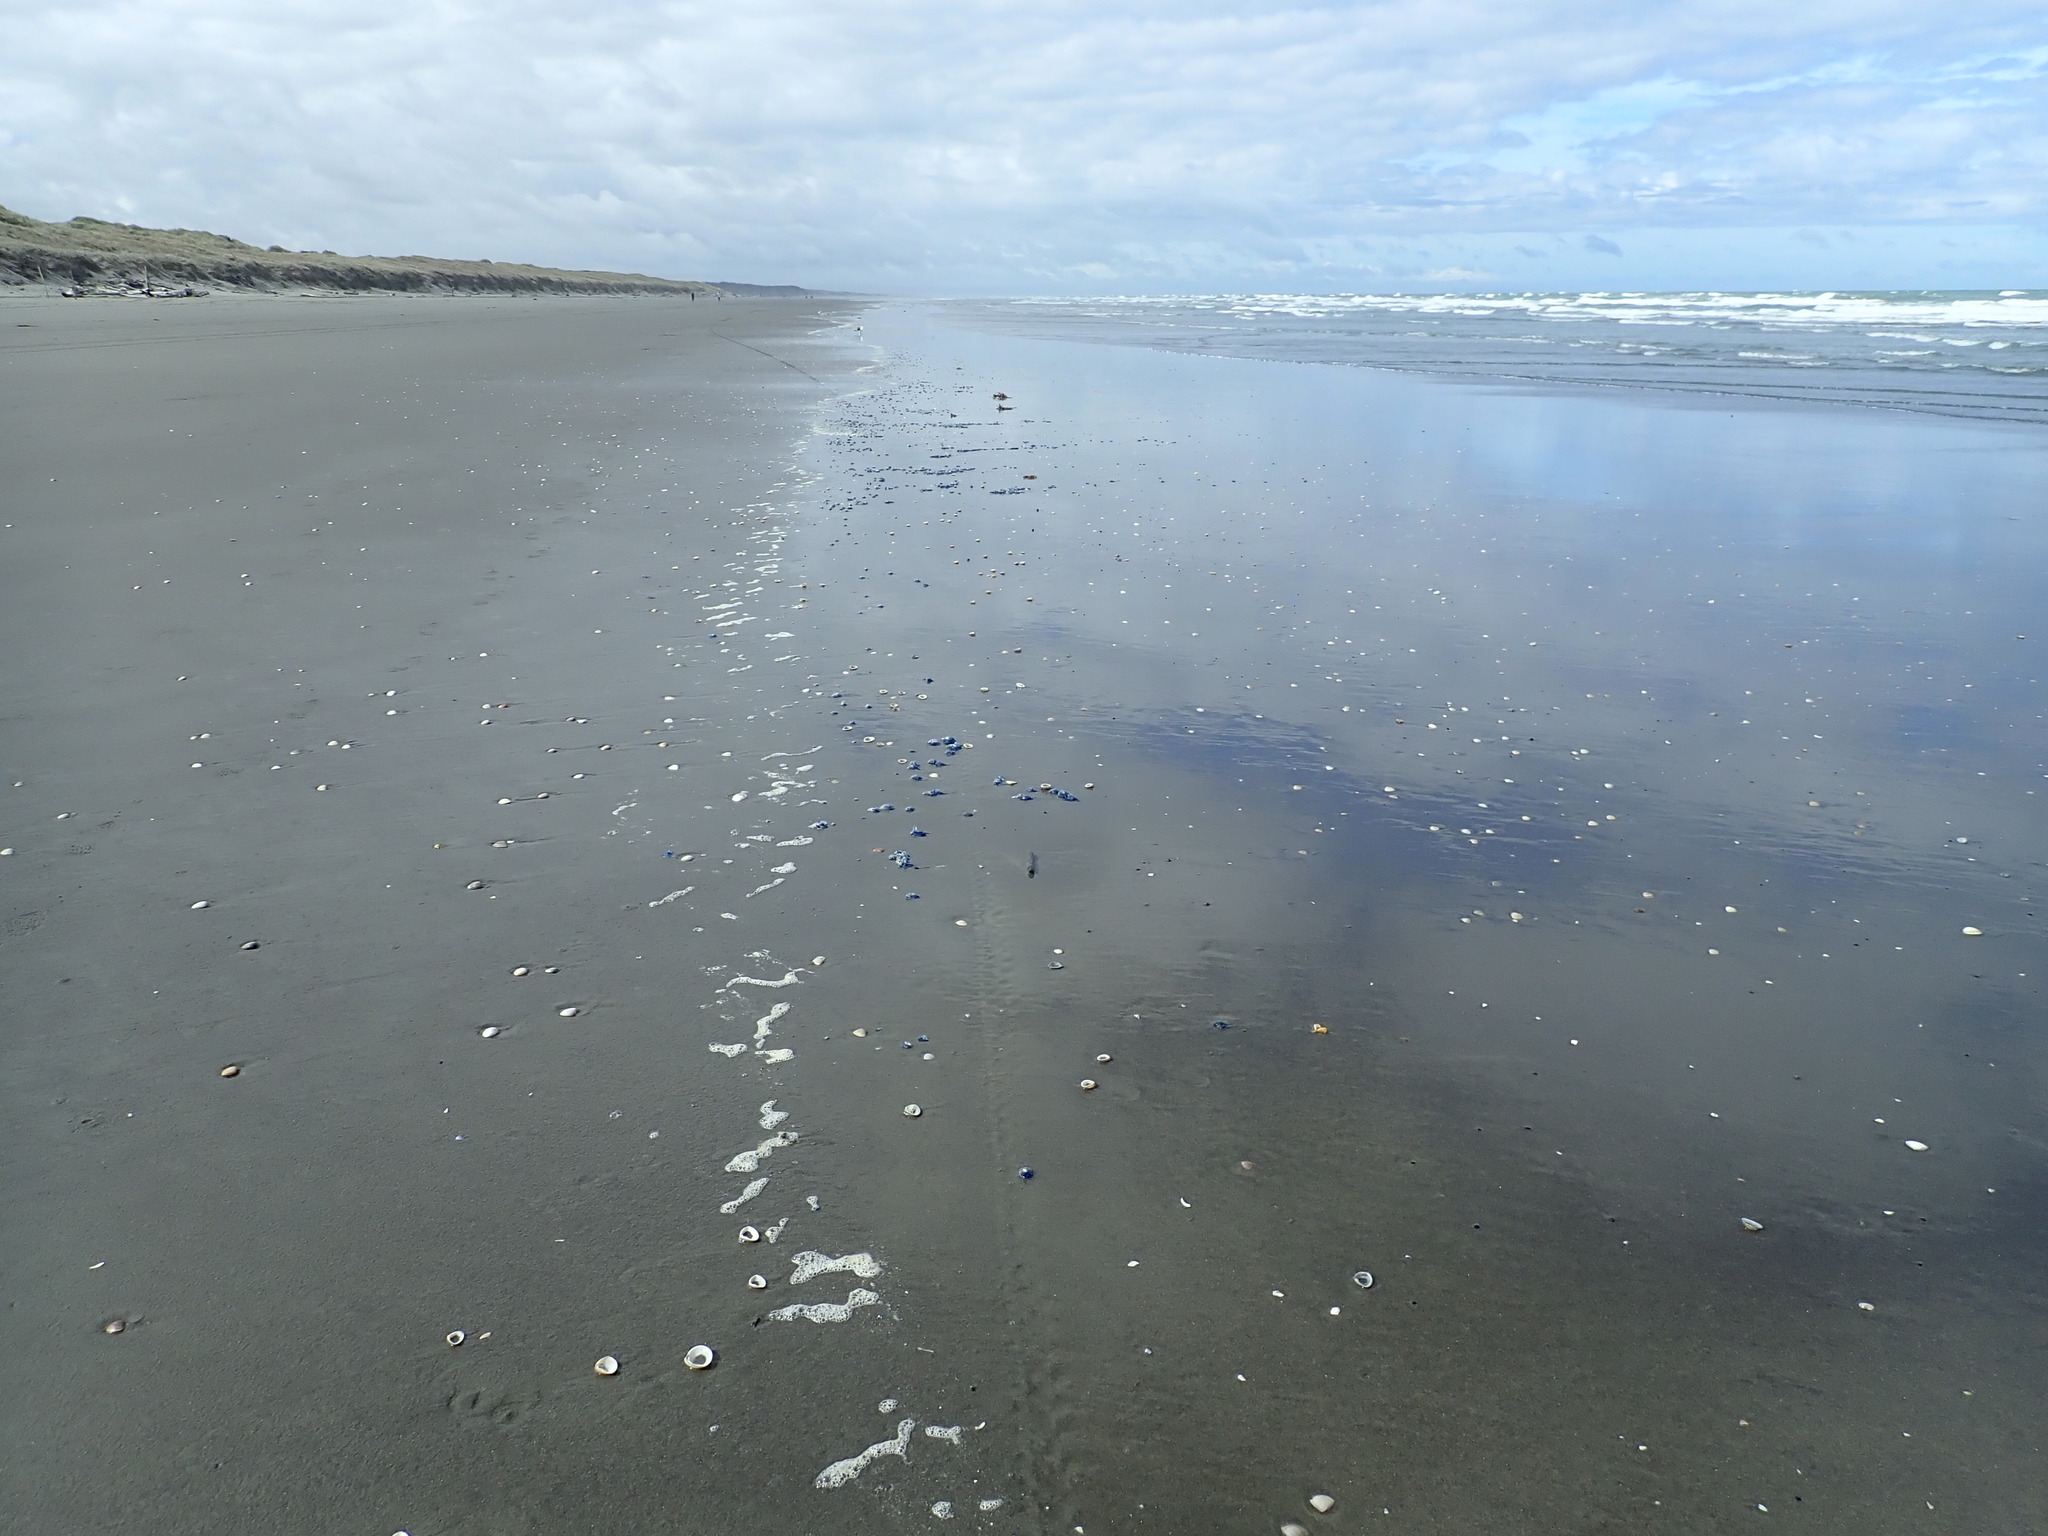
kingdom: Animalia
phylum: Cnidaria
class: Hydrozoa
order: Siphonophorae
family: Physaliidae
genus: Physalia
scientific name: Physalia physalis
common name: Portuguese man-of-war
